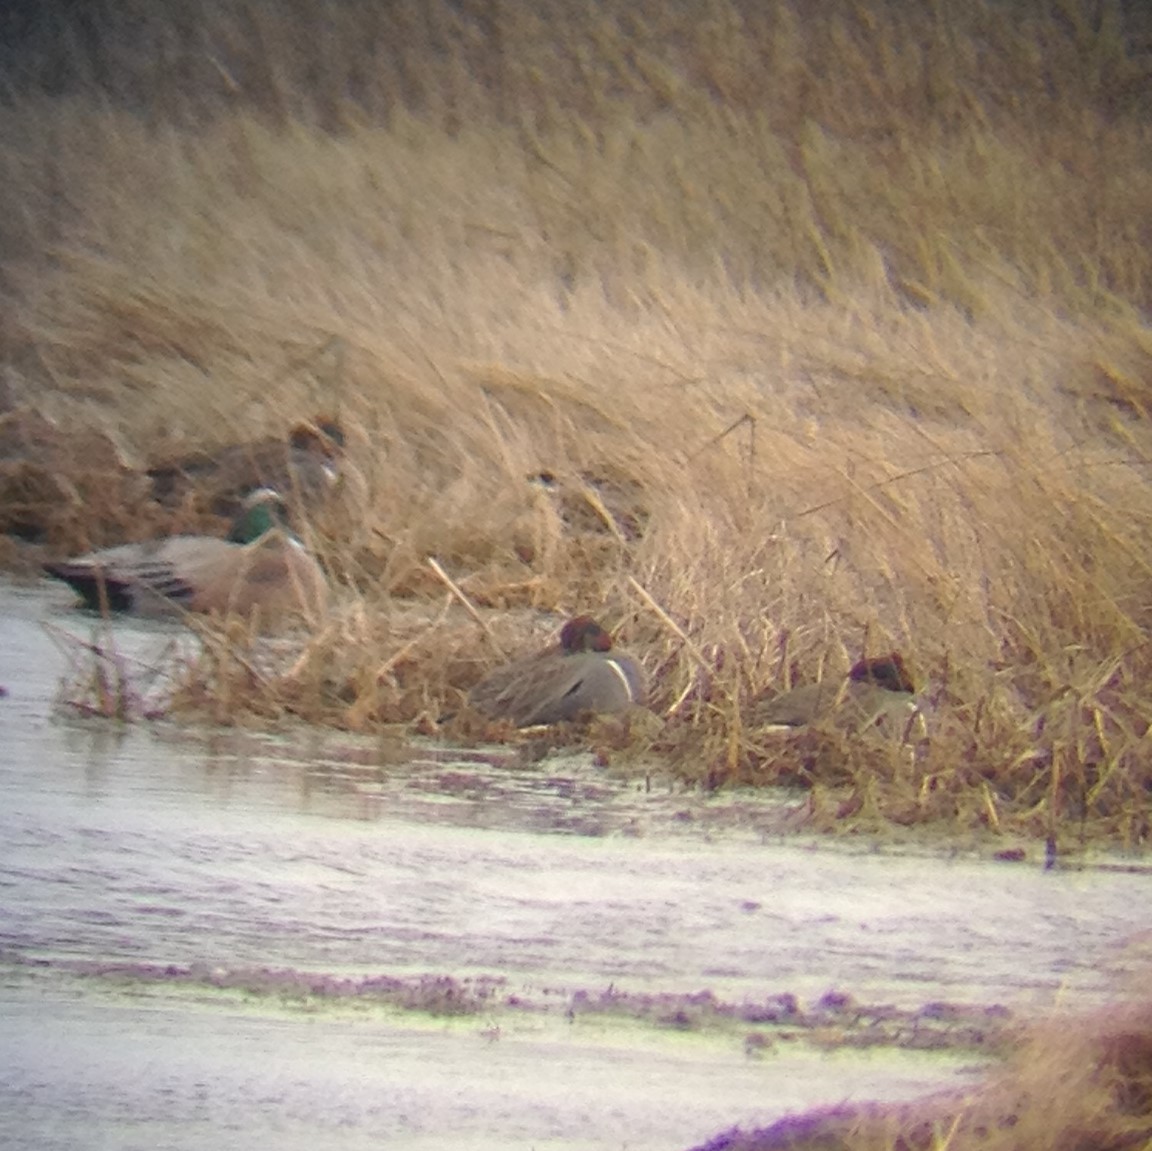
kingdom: Animalia
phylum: Chordata
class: Aves
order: Anseriformes
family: Anatidae
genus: Anas
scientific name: Anas carolinensis
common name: Green-winged teal
